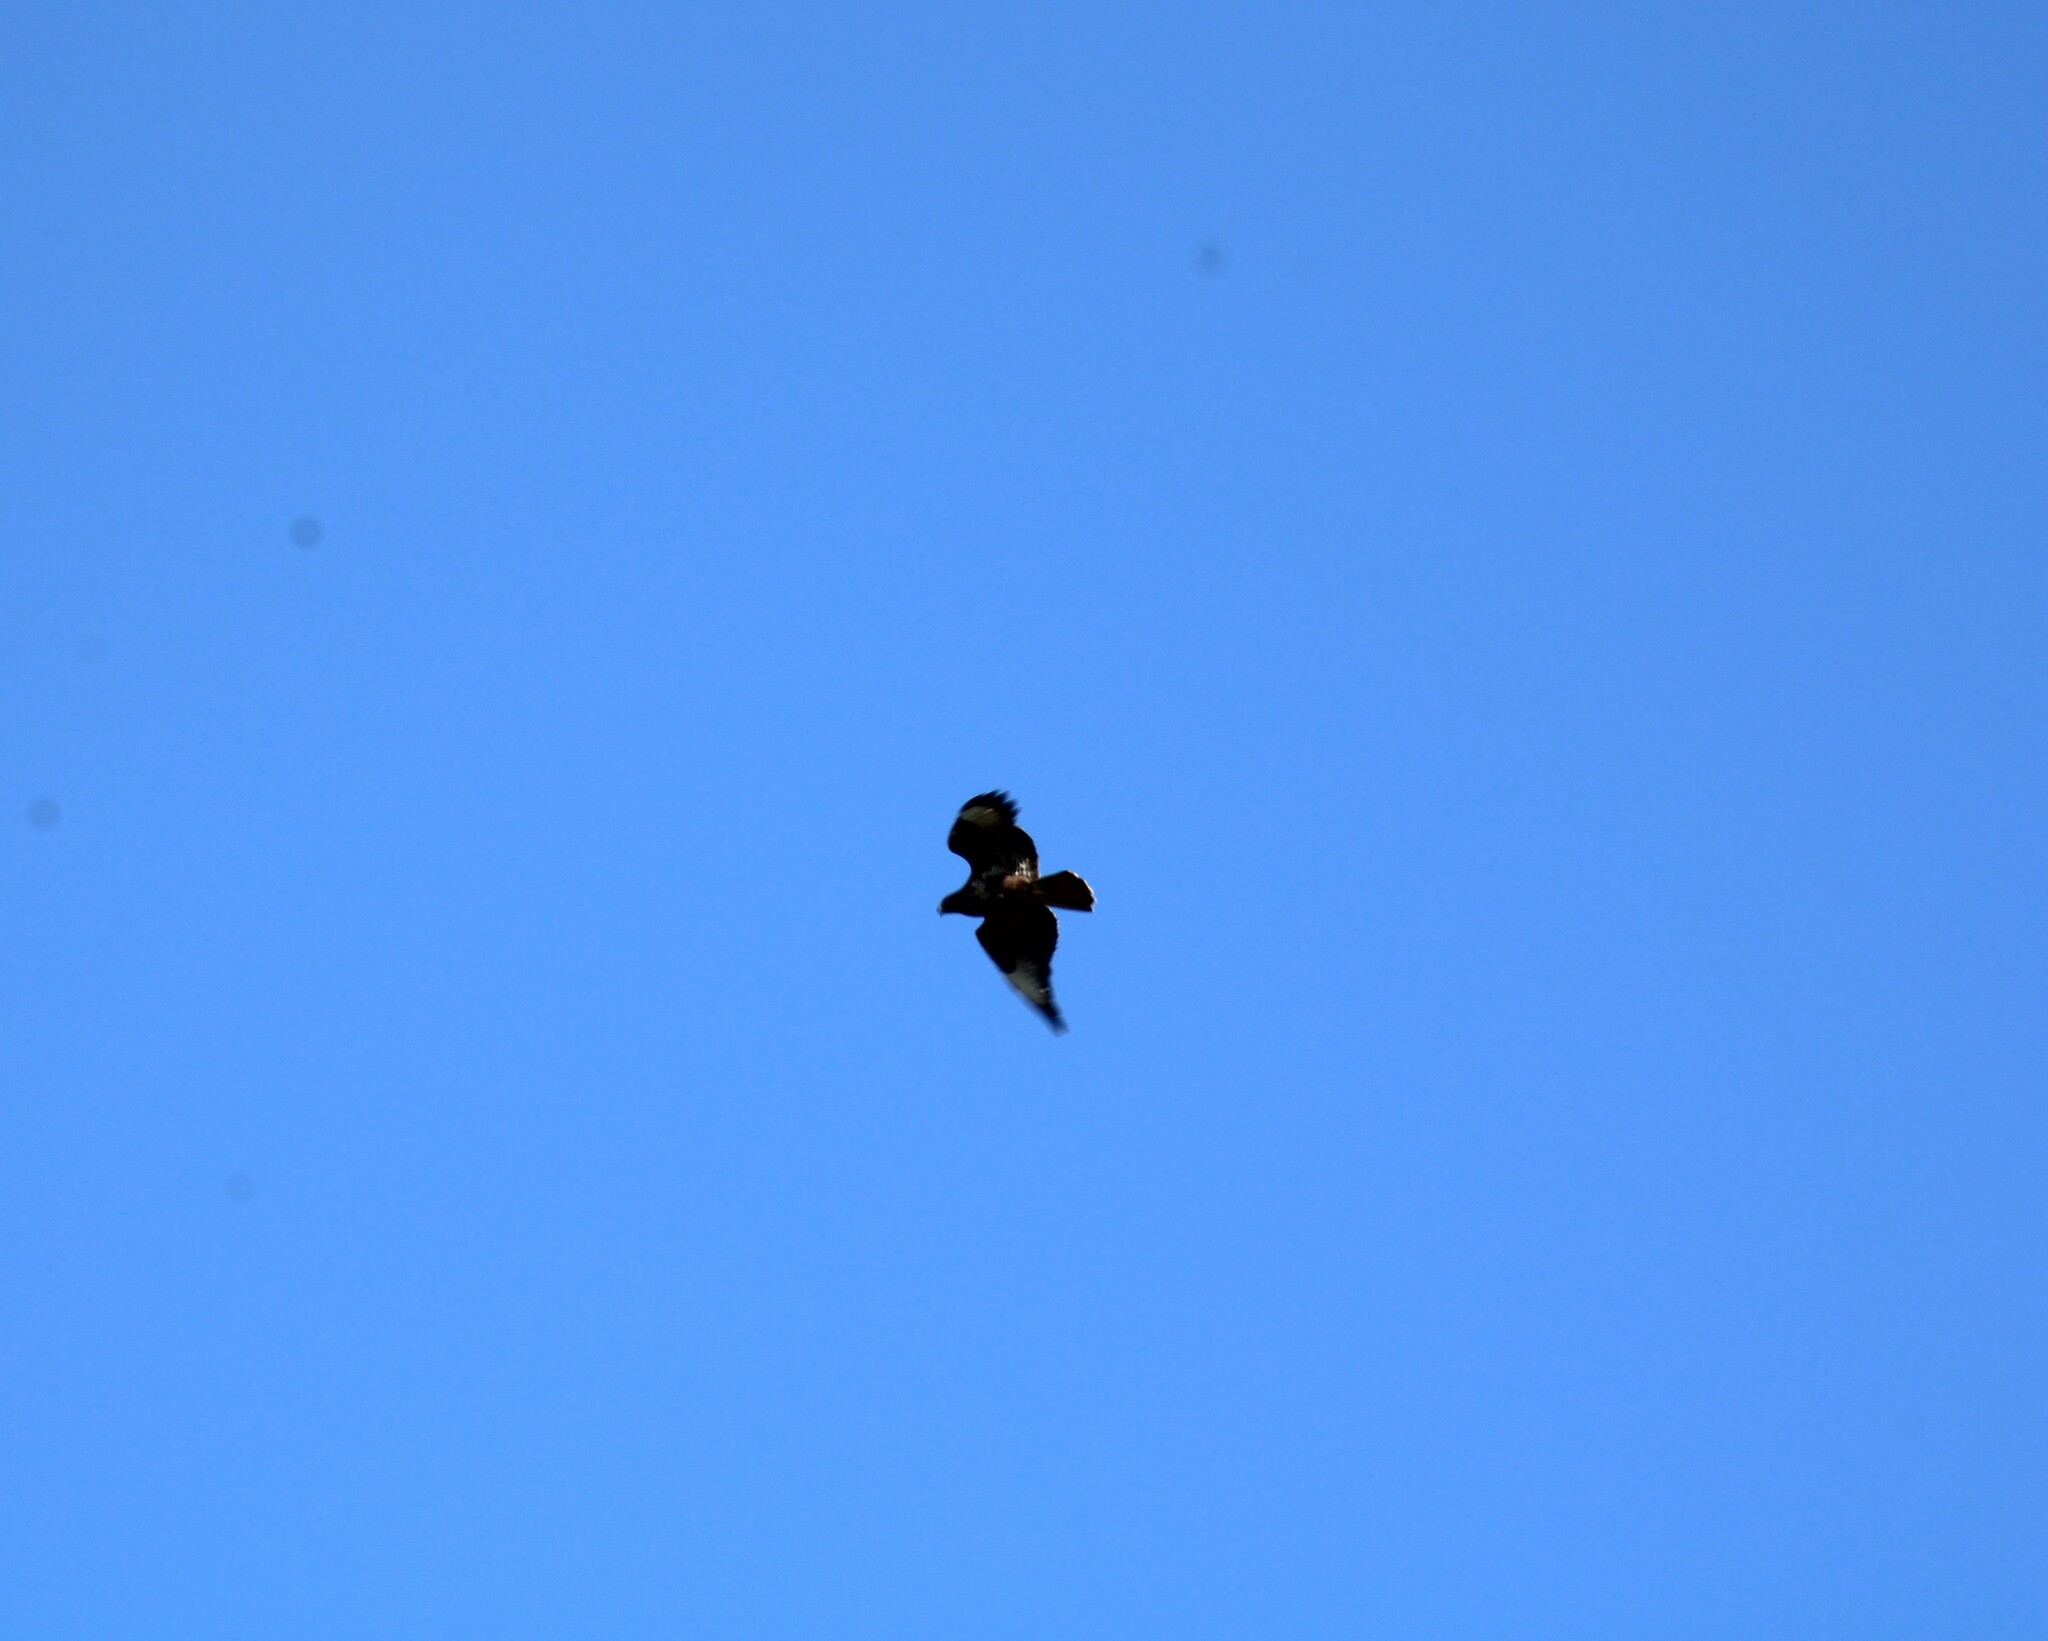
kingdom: Animalia
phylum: Chordata
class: Aves
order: Accipitriformes
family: Accipitridae
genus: Buteo
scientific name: Buteo buteo
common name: Common buzzard
